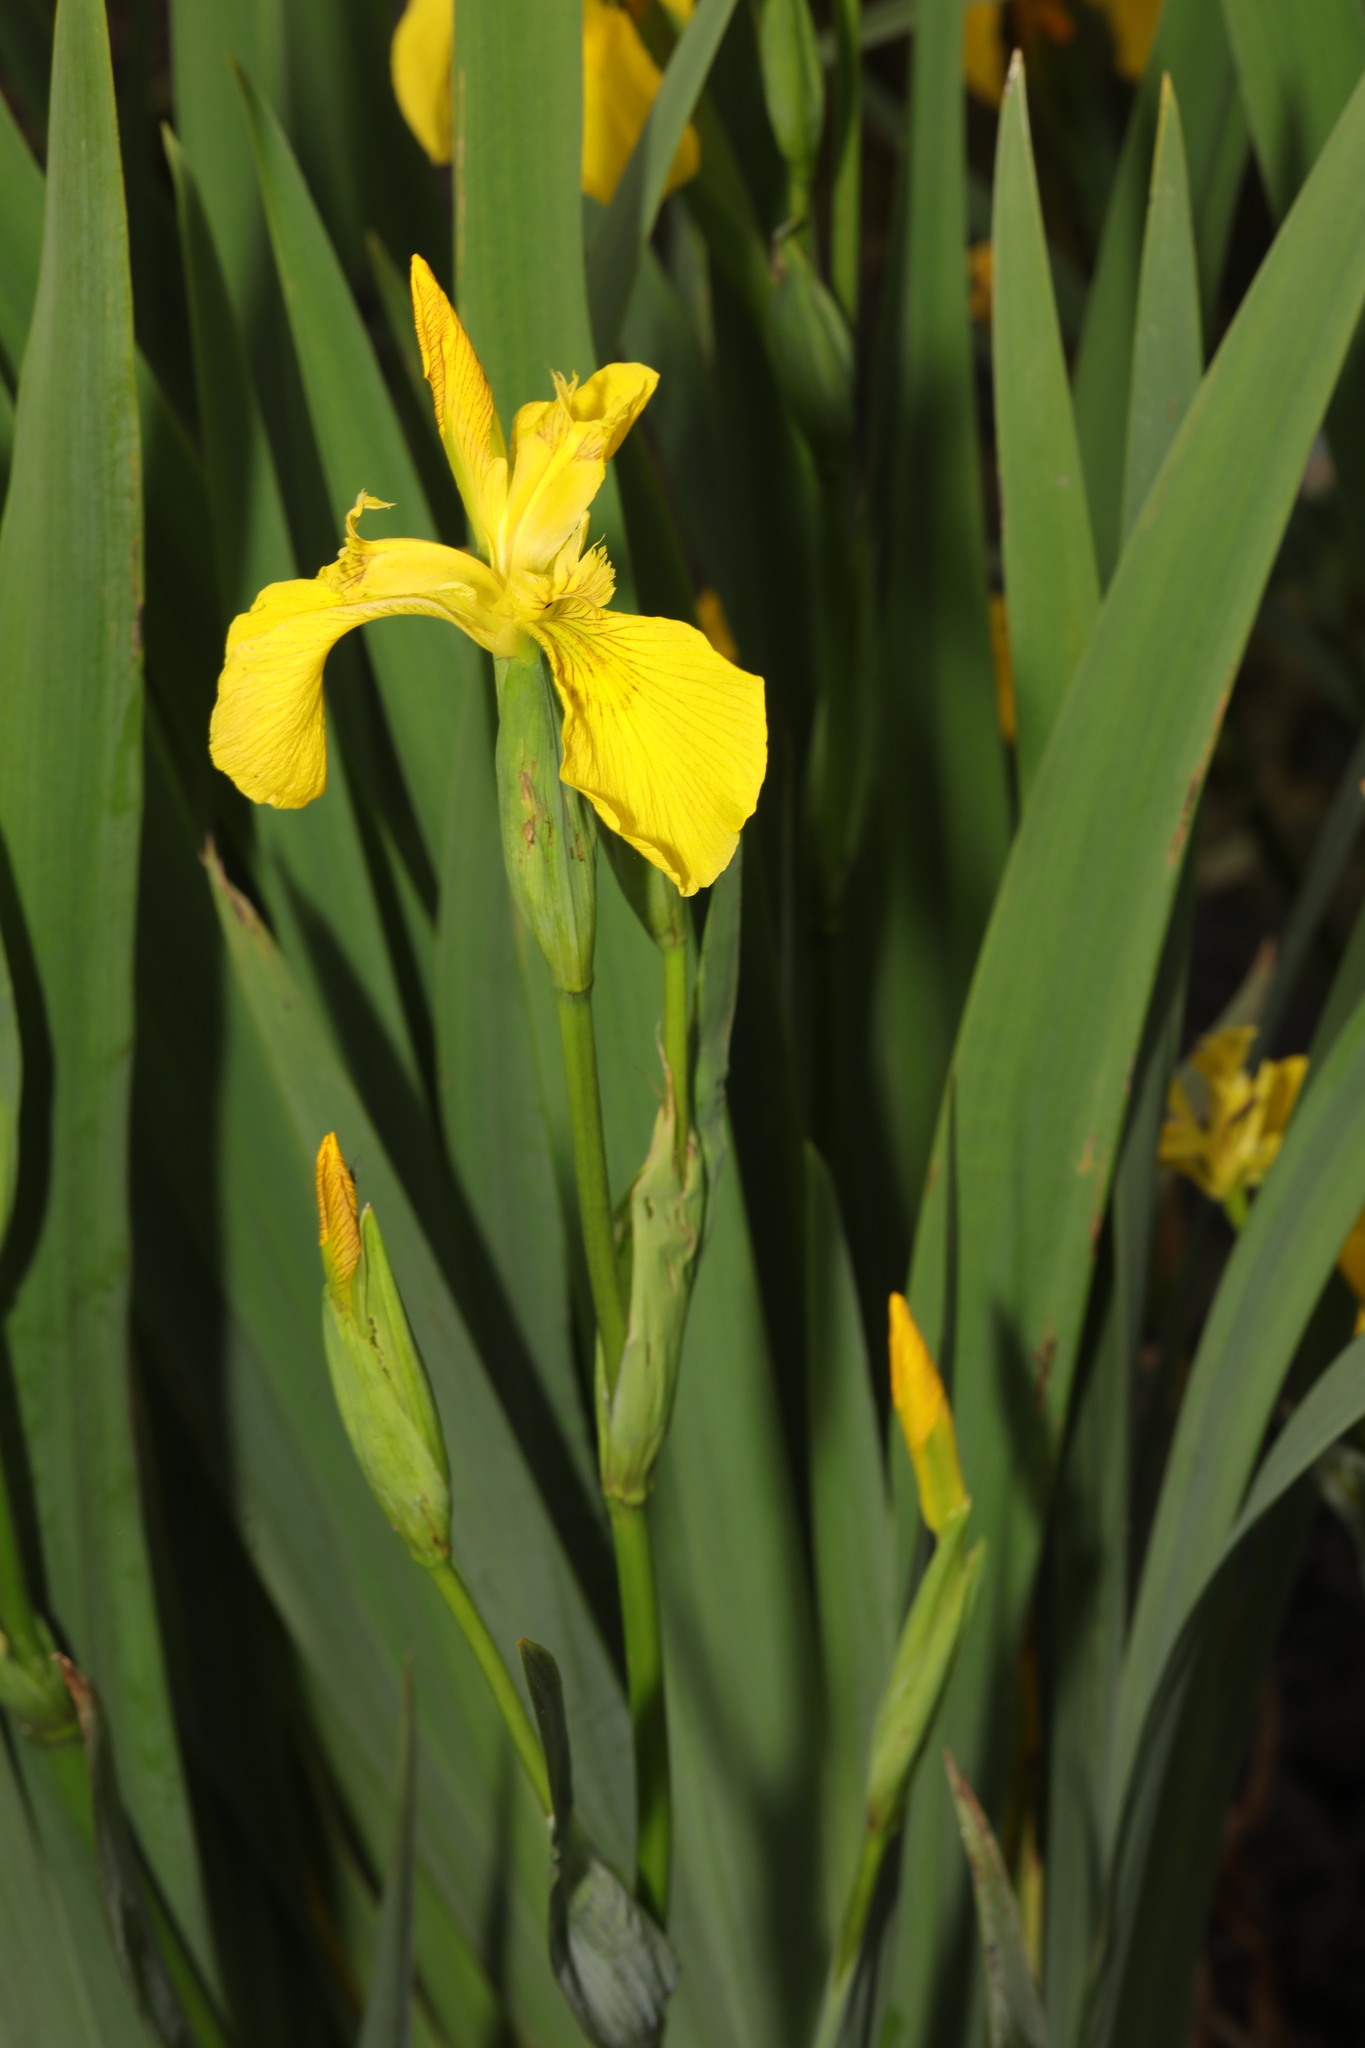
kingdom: Plantae
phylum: Tracheophyta
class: Liliopsida
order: Asparagales
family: Iridaceae
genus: Iris
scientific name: Iris pseudacorus
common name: Yellow flag
